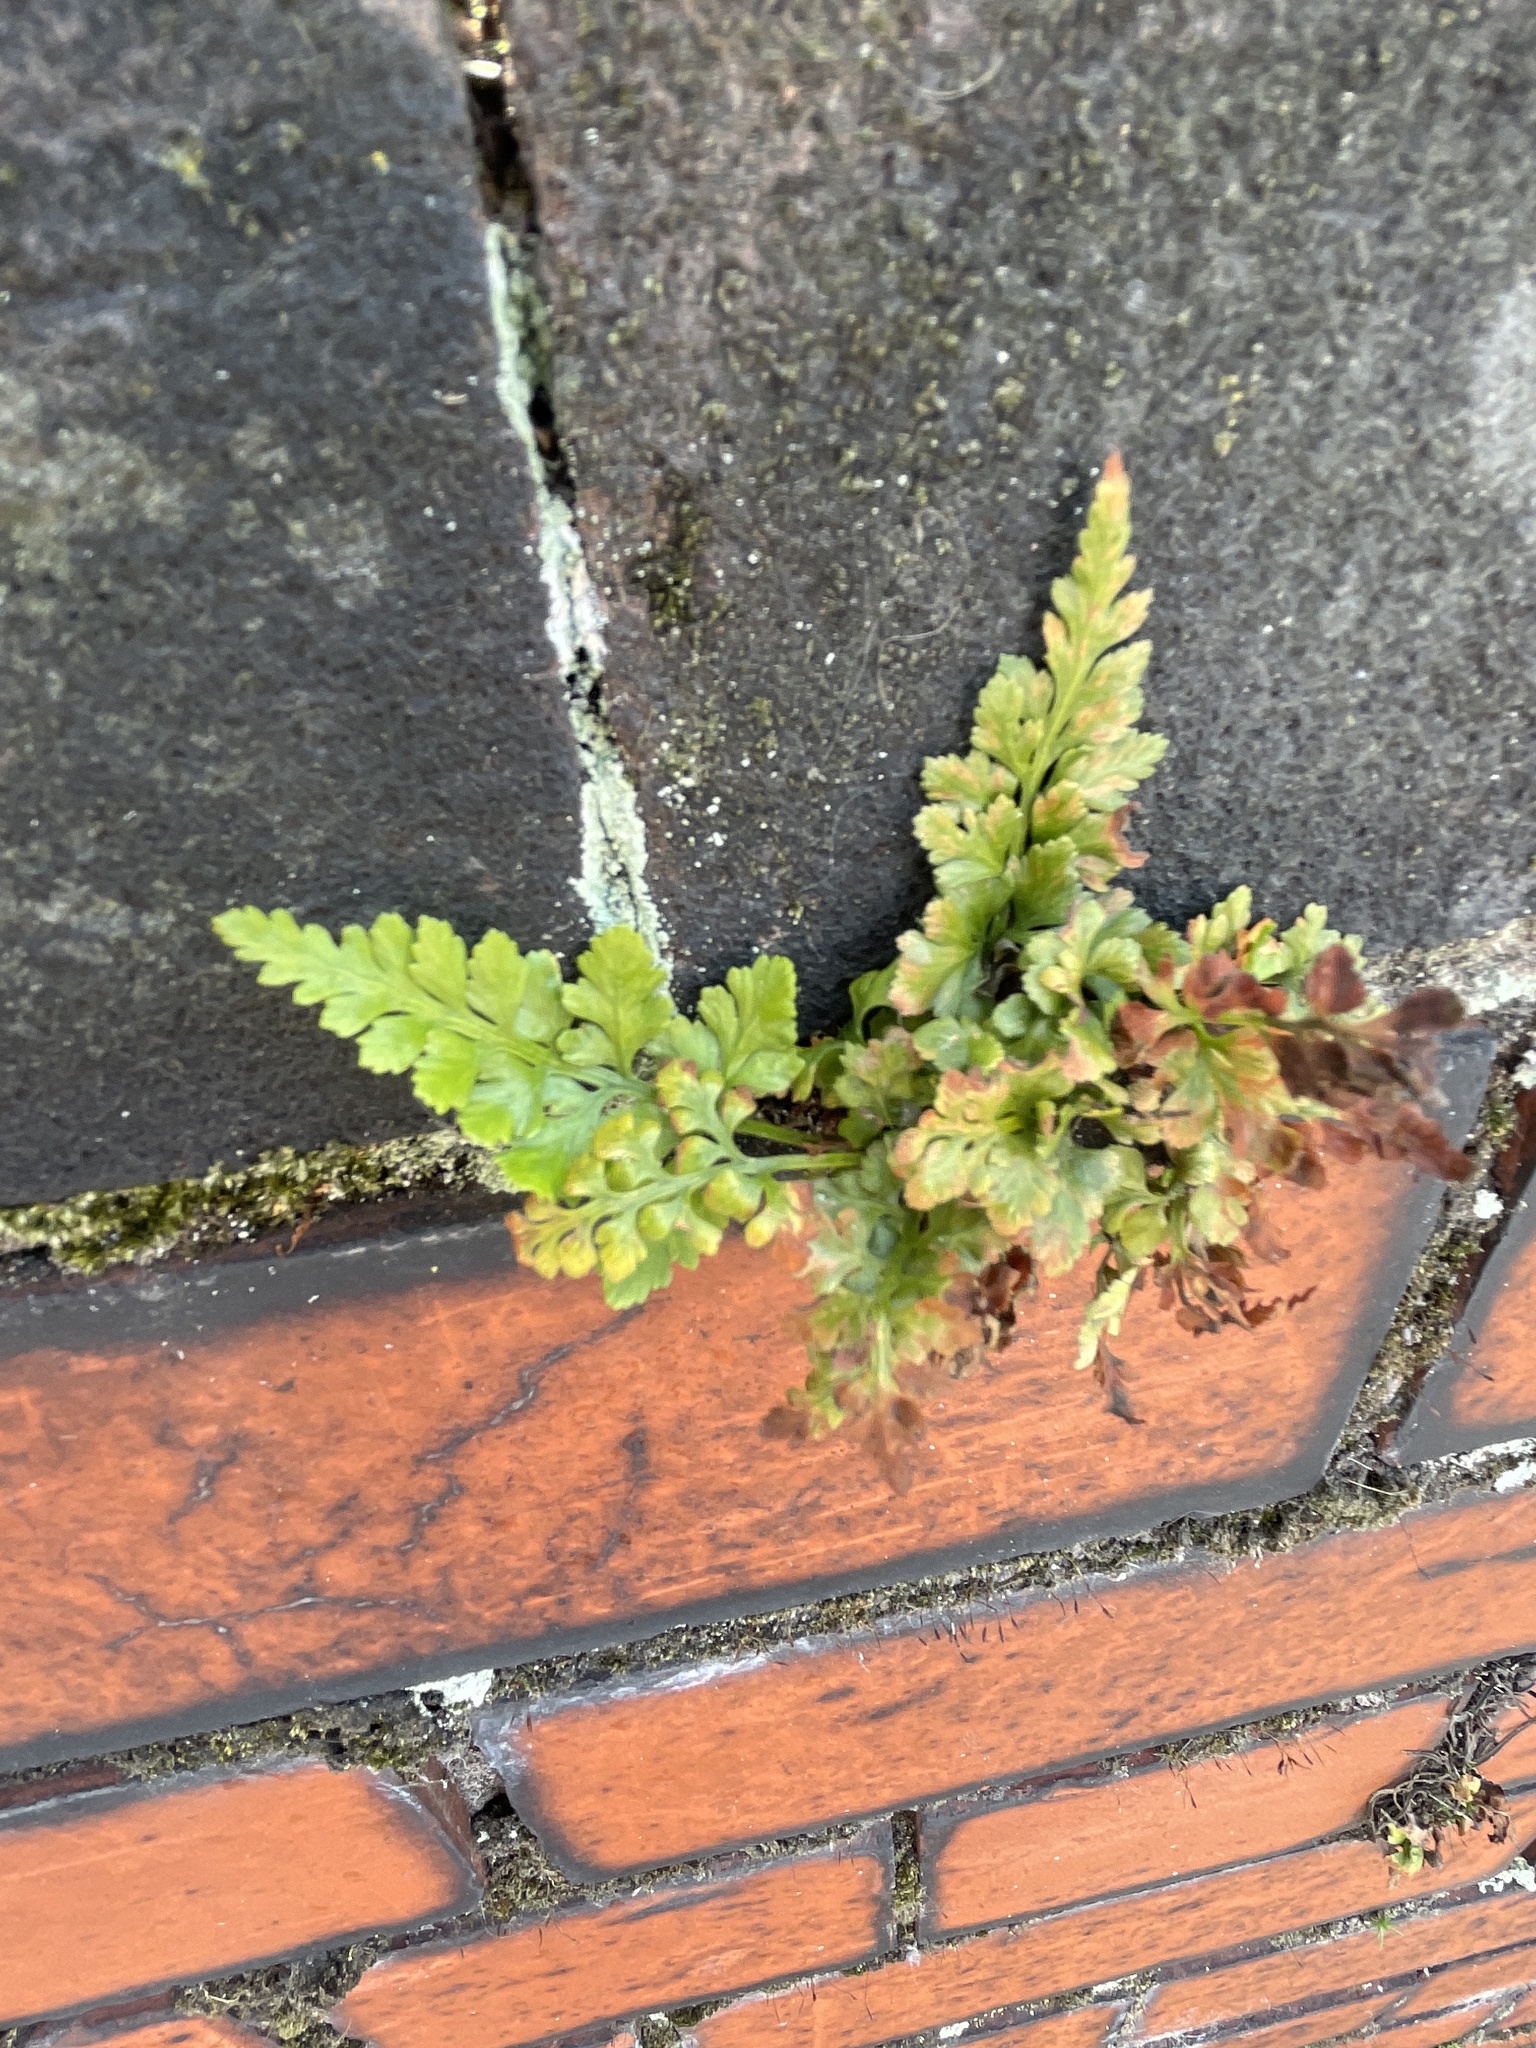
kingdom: Plantae
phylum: Tracheophyta
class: Polypodiopsida
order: Polypodiales
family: Aspleniaceae
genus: Asplenium
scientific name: Asplenium adiantum-nigrum
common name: Black spleenwort
